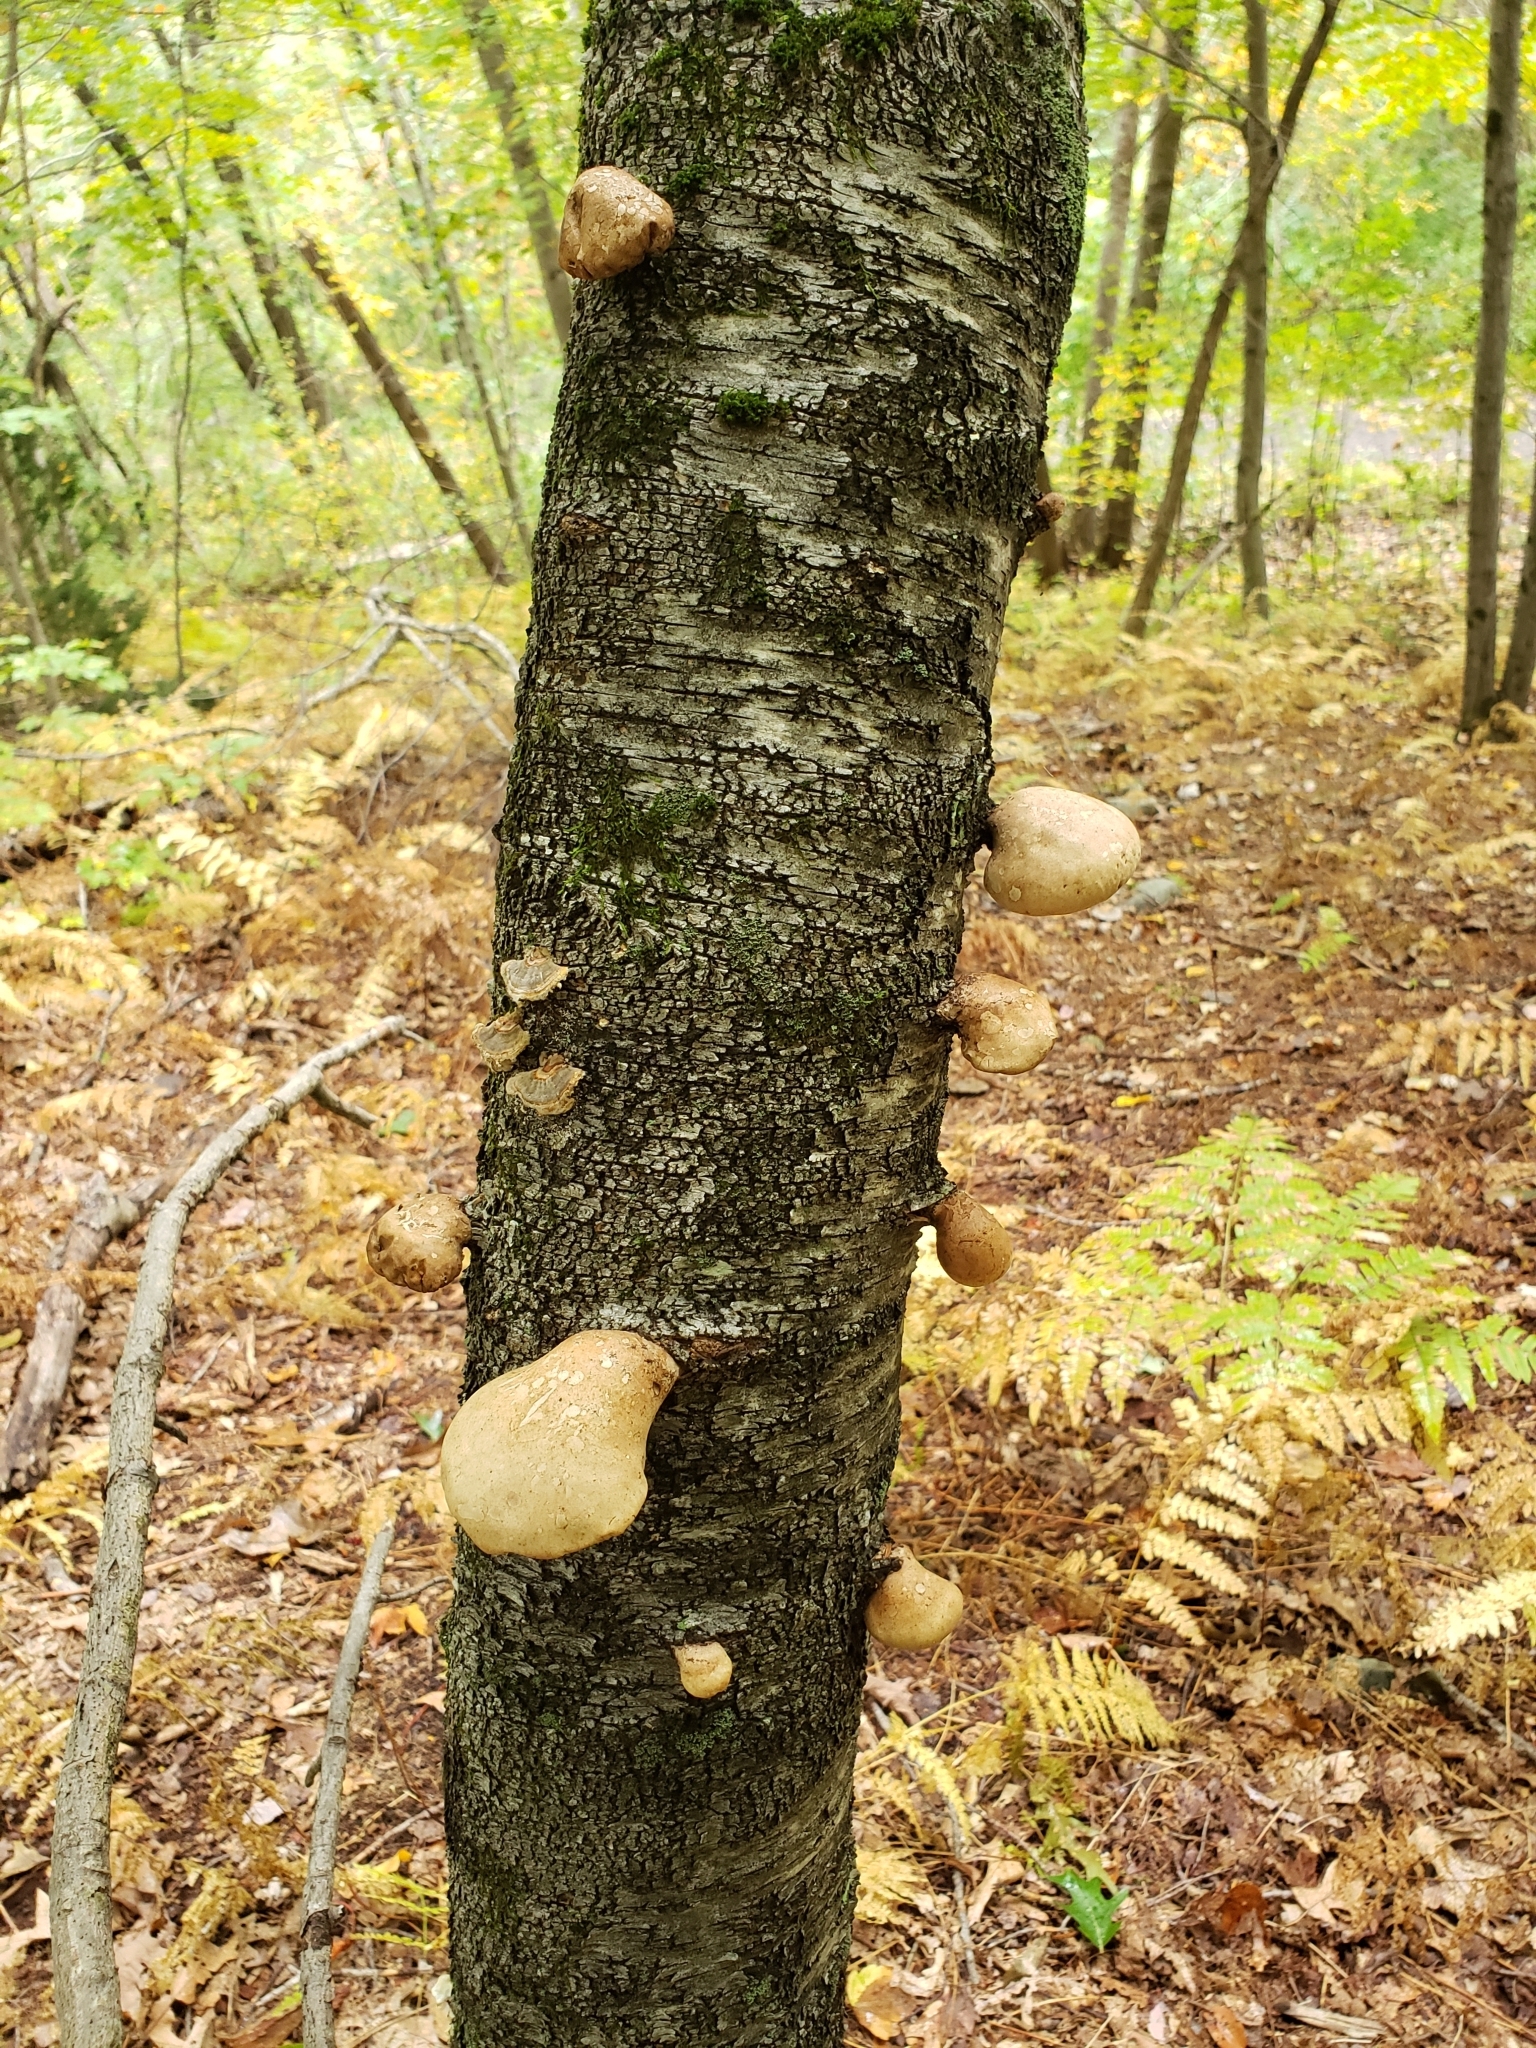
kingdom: Fungi
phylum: Basidiomycota
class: Agaricomycetes
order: Polyporales
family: Fomitopsidaceae
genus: Fomitopsis
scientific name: Fomitopsis betulina
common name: Birch polypore
